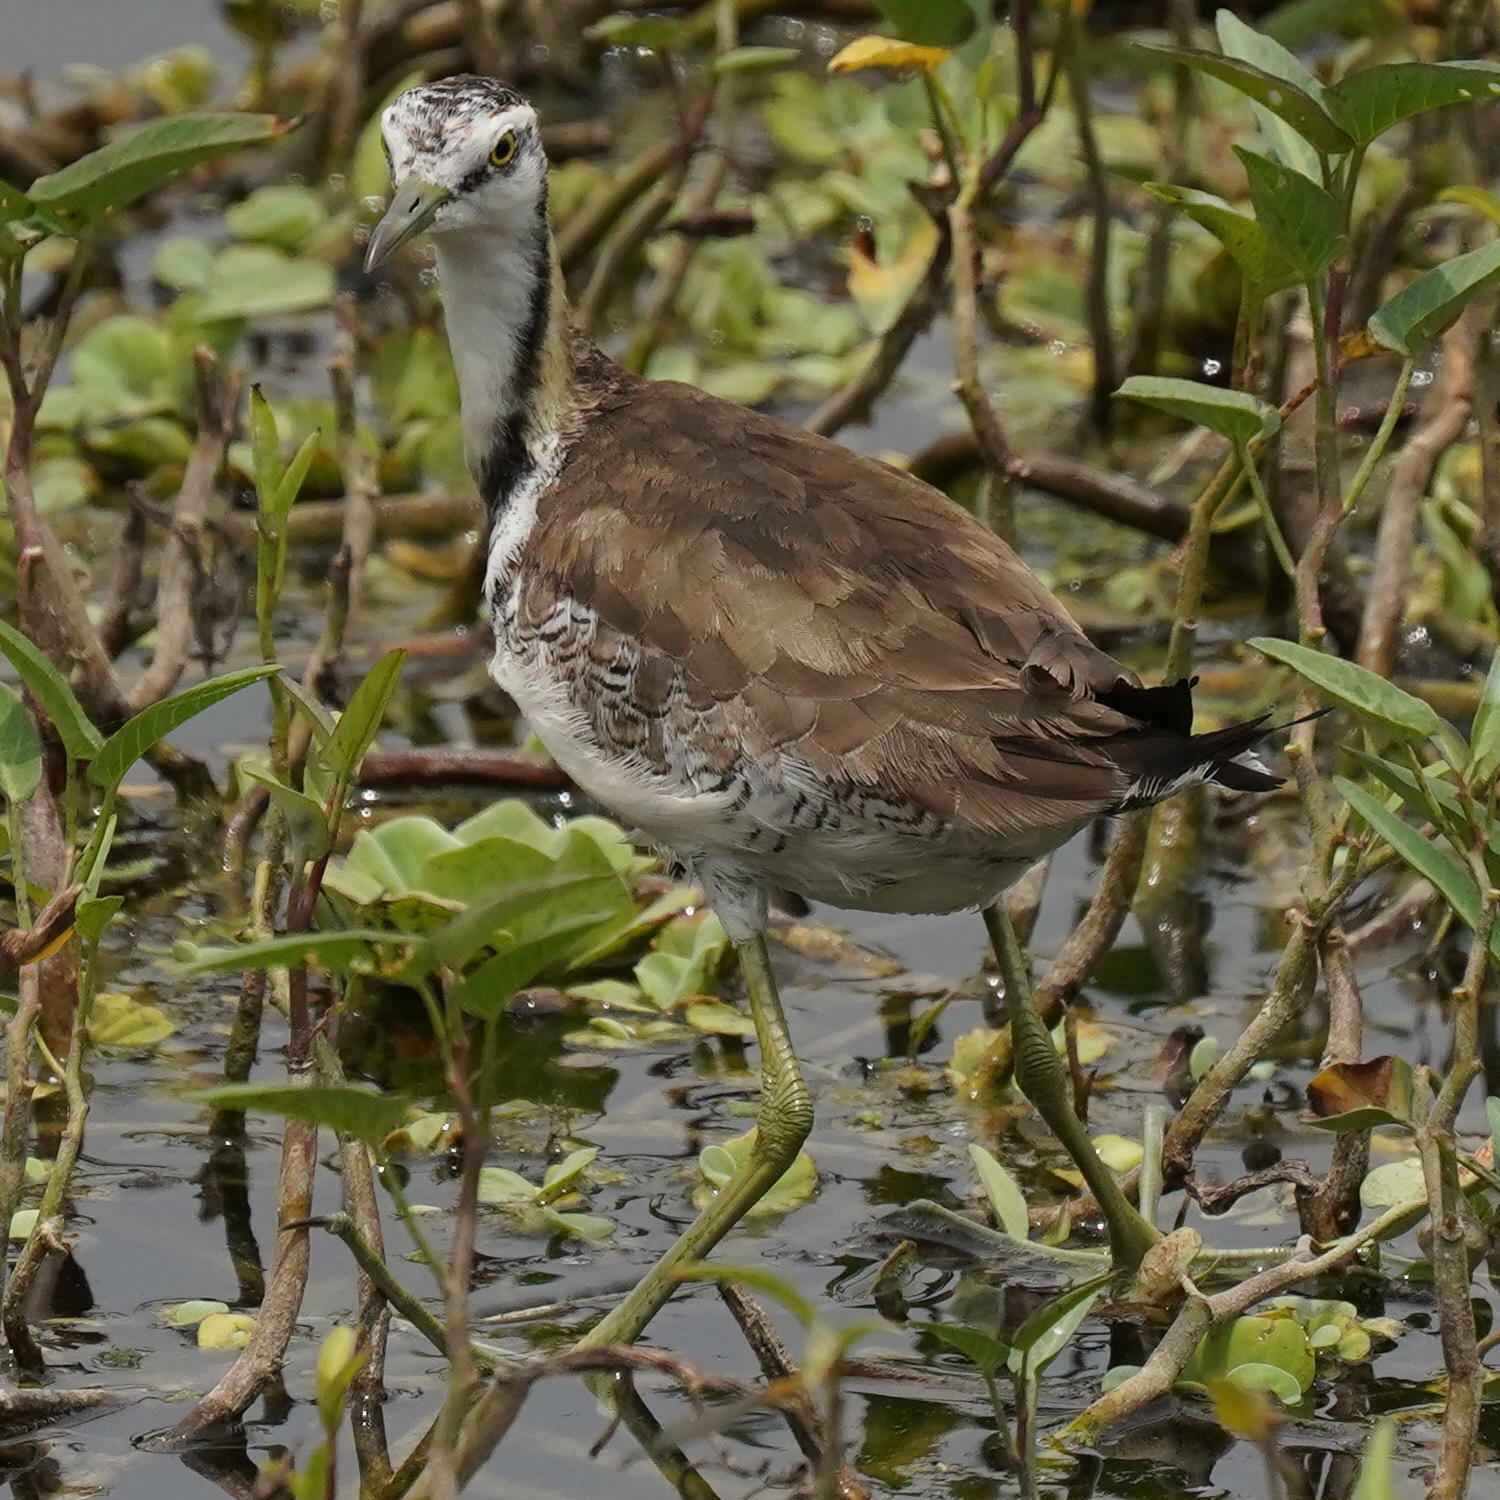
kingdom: Animalia
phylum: Chordata
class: Aves
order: Charadriiformes
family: Jacanidae
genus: Hydrophasianus
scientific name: Hydrophasianus chirurgus
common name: Pheasant-tailed jacana
